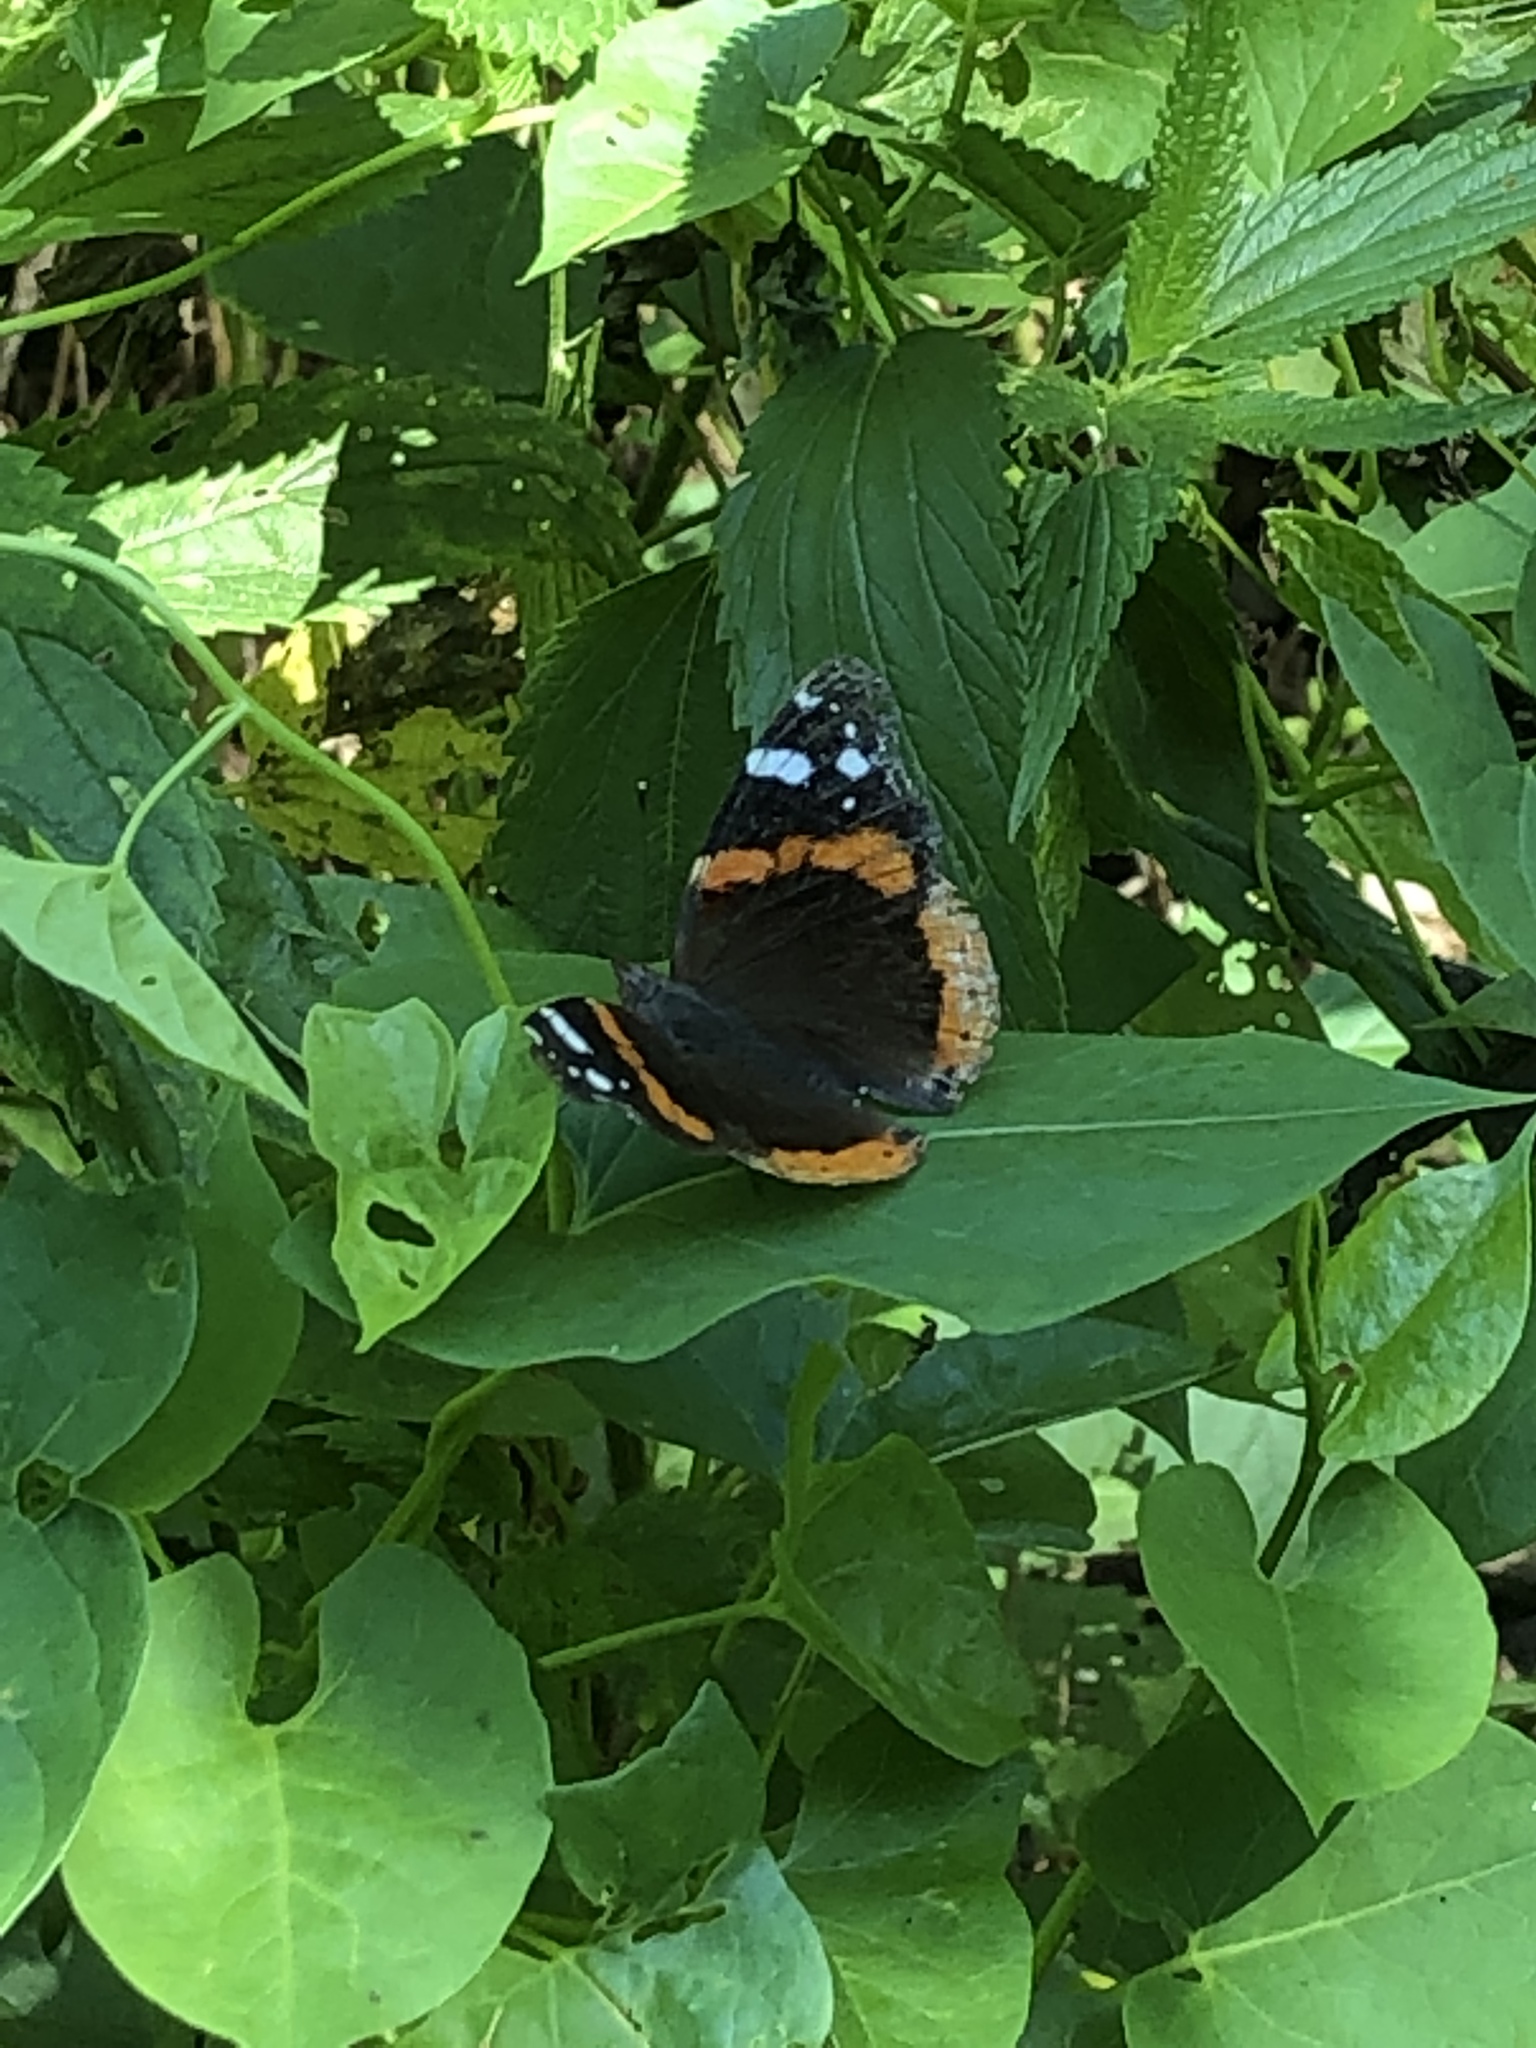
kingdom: Animalia
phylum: Arthropoda
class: Insecta
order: Lepidoptera
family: Nymphalidae
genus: Vanessa
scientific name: Vanessa atalanta
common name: Red admiral
